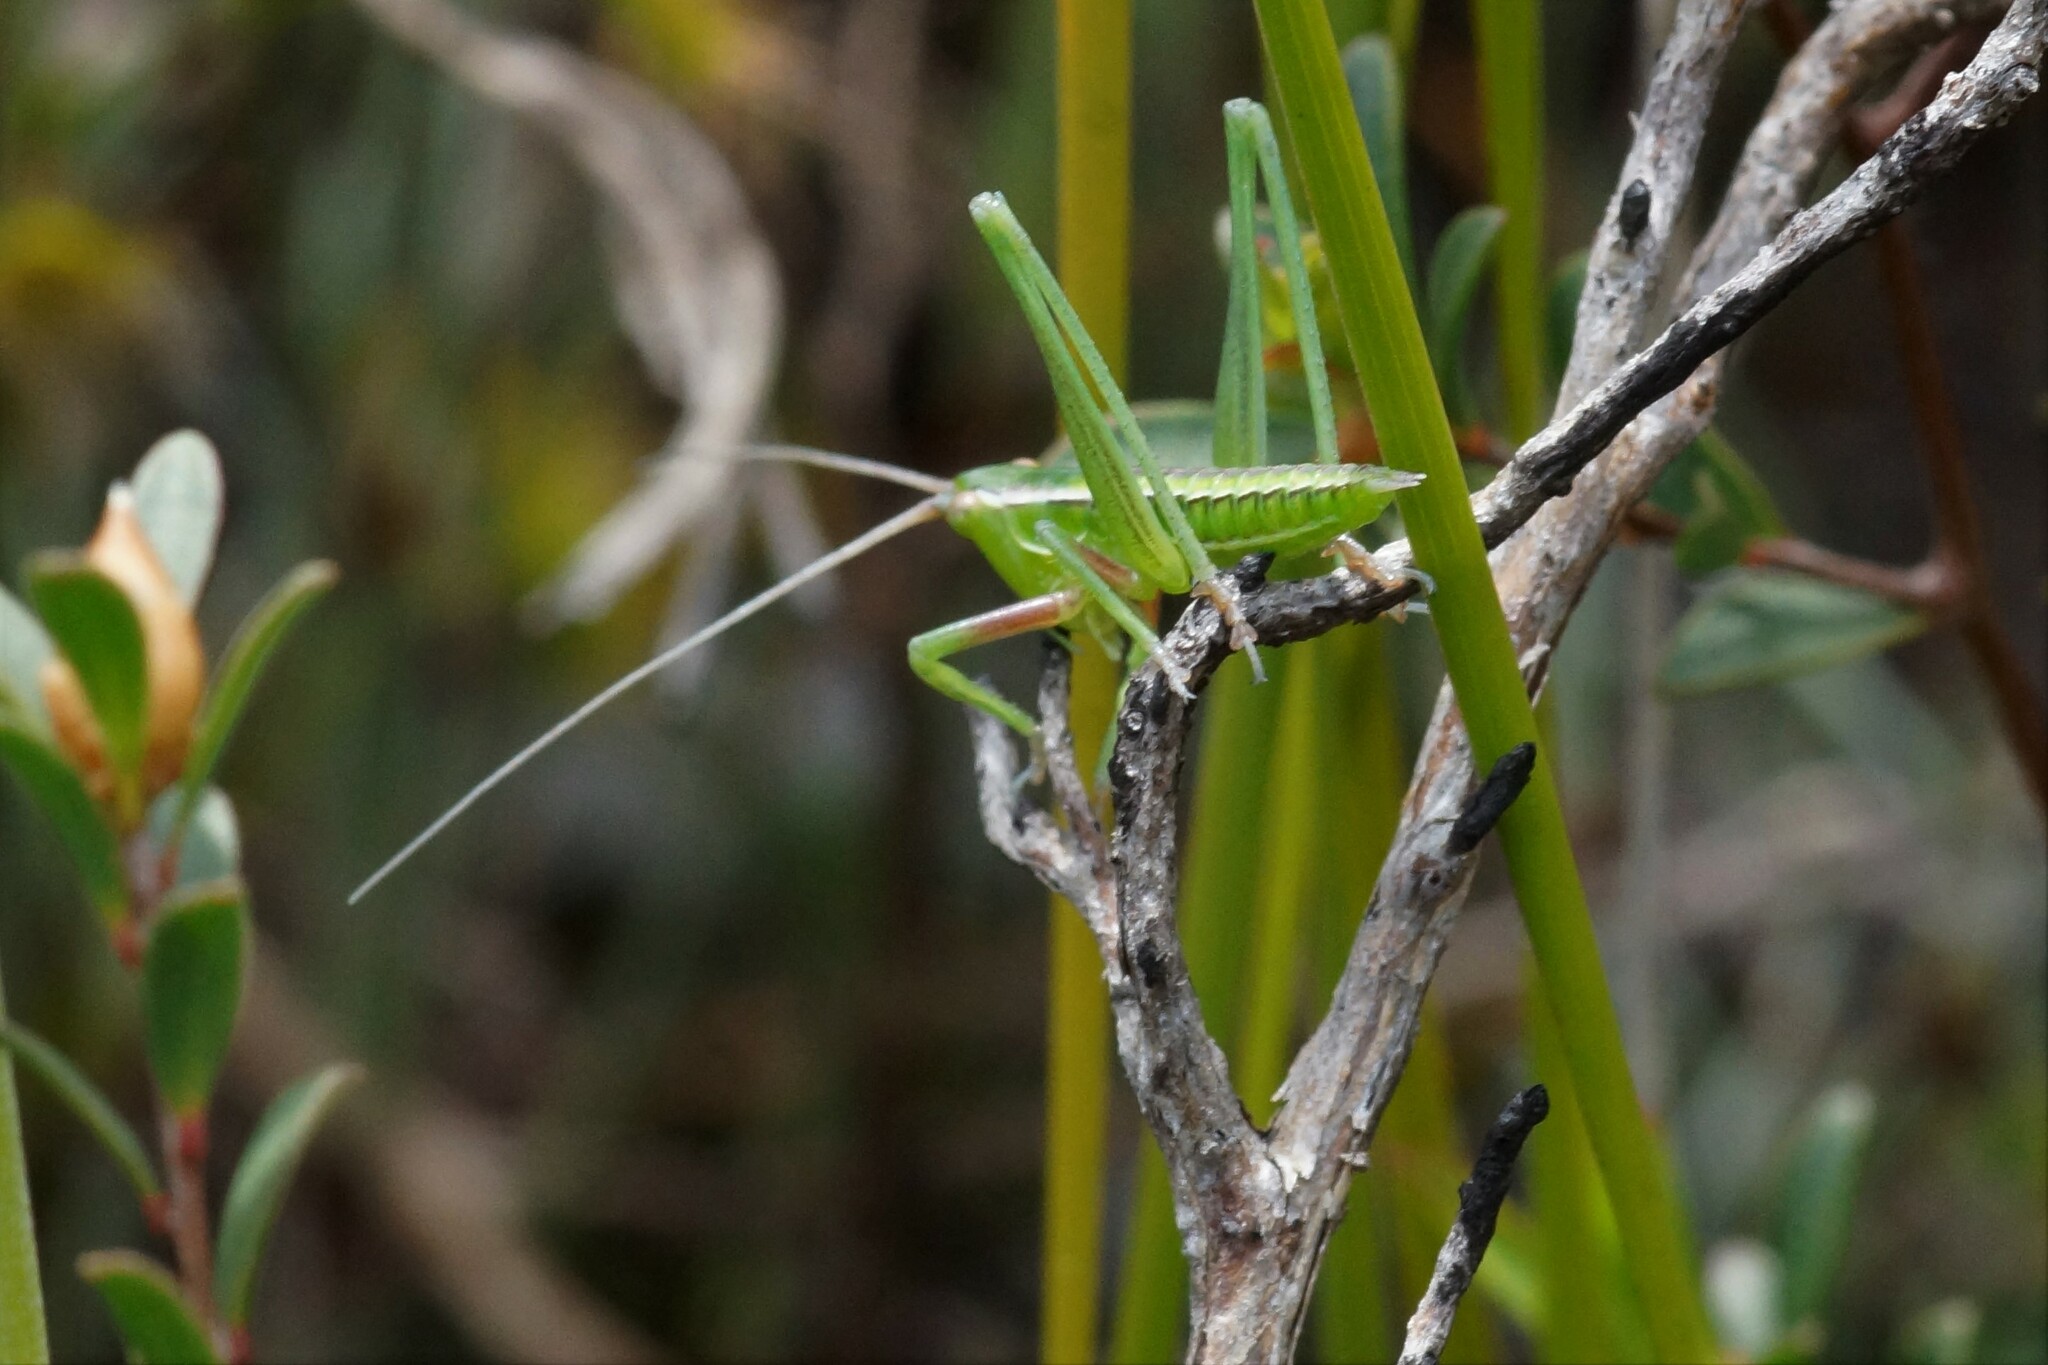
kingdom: Animalia
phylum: Arthropoda
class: Insecta
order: Orthoptera
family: Tettigoniidae
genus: Metaballus
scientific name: Metaballus sagaeformis
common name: Adelaide marauding katydid
